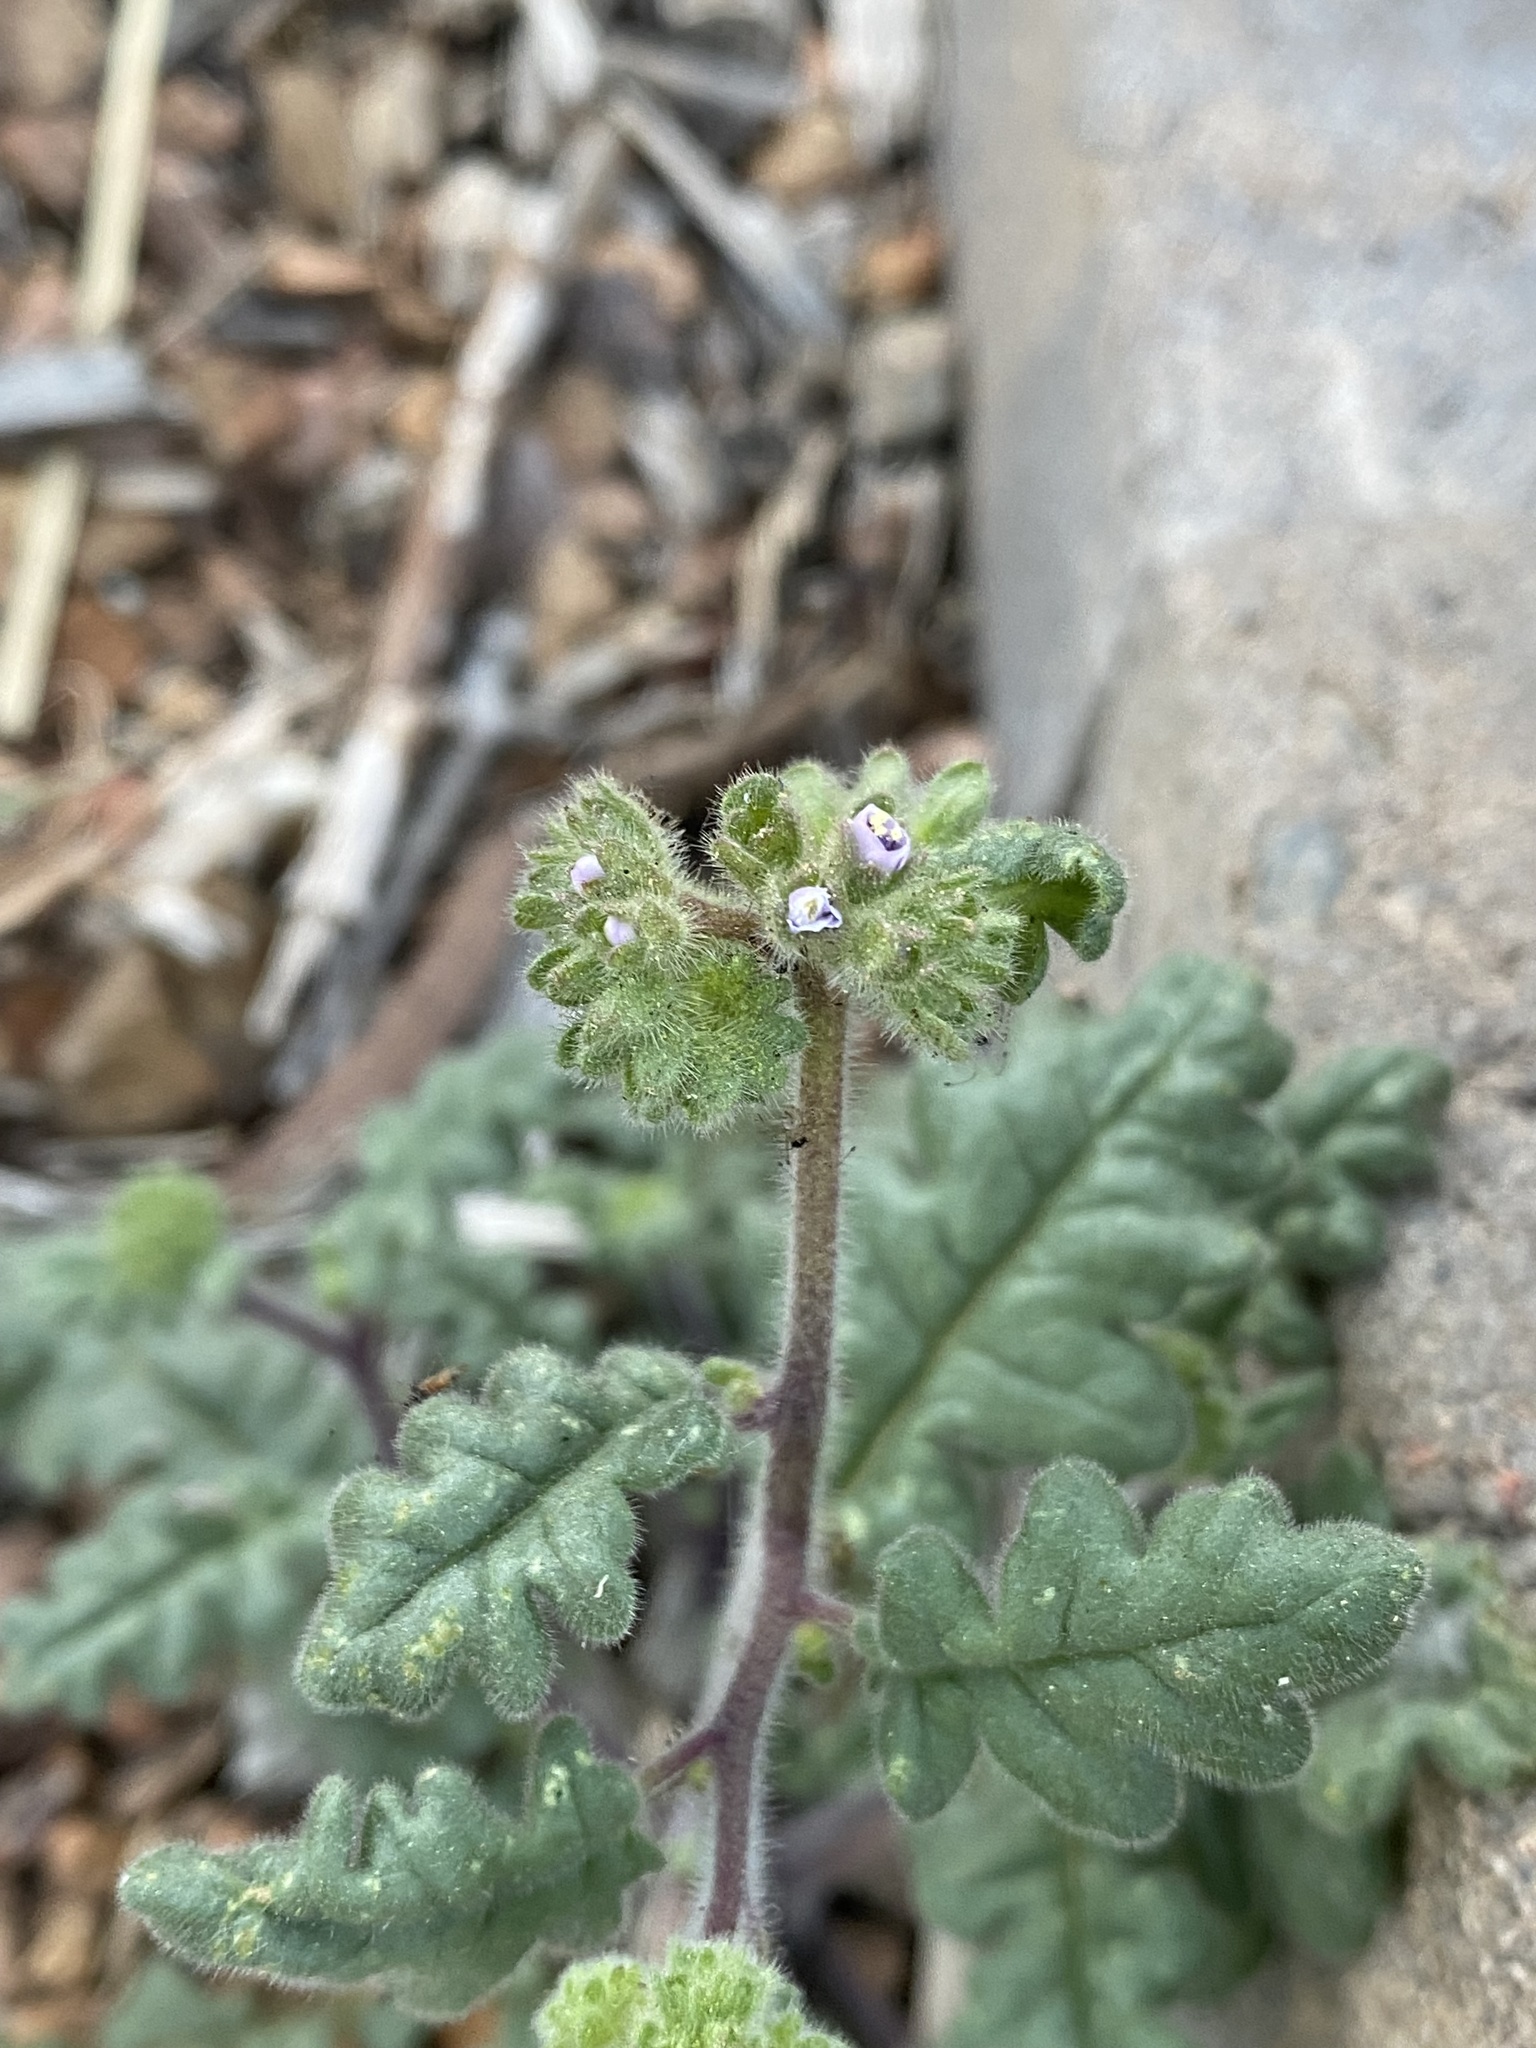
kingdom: Plantae
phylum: Tracheophyta
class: Magnoliopsida
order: Boraginales
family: Hydrophyllaceae
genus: Phacelia
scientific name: Phacelia coerulea
